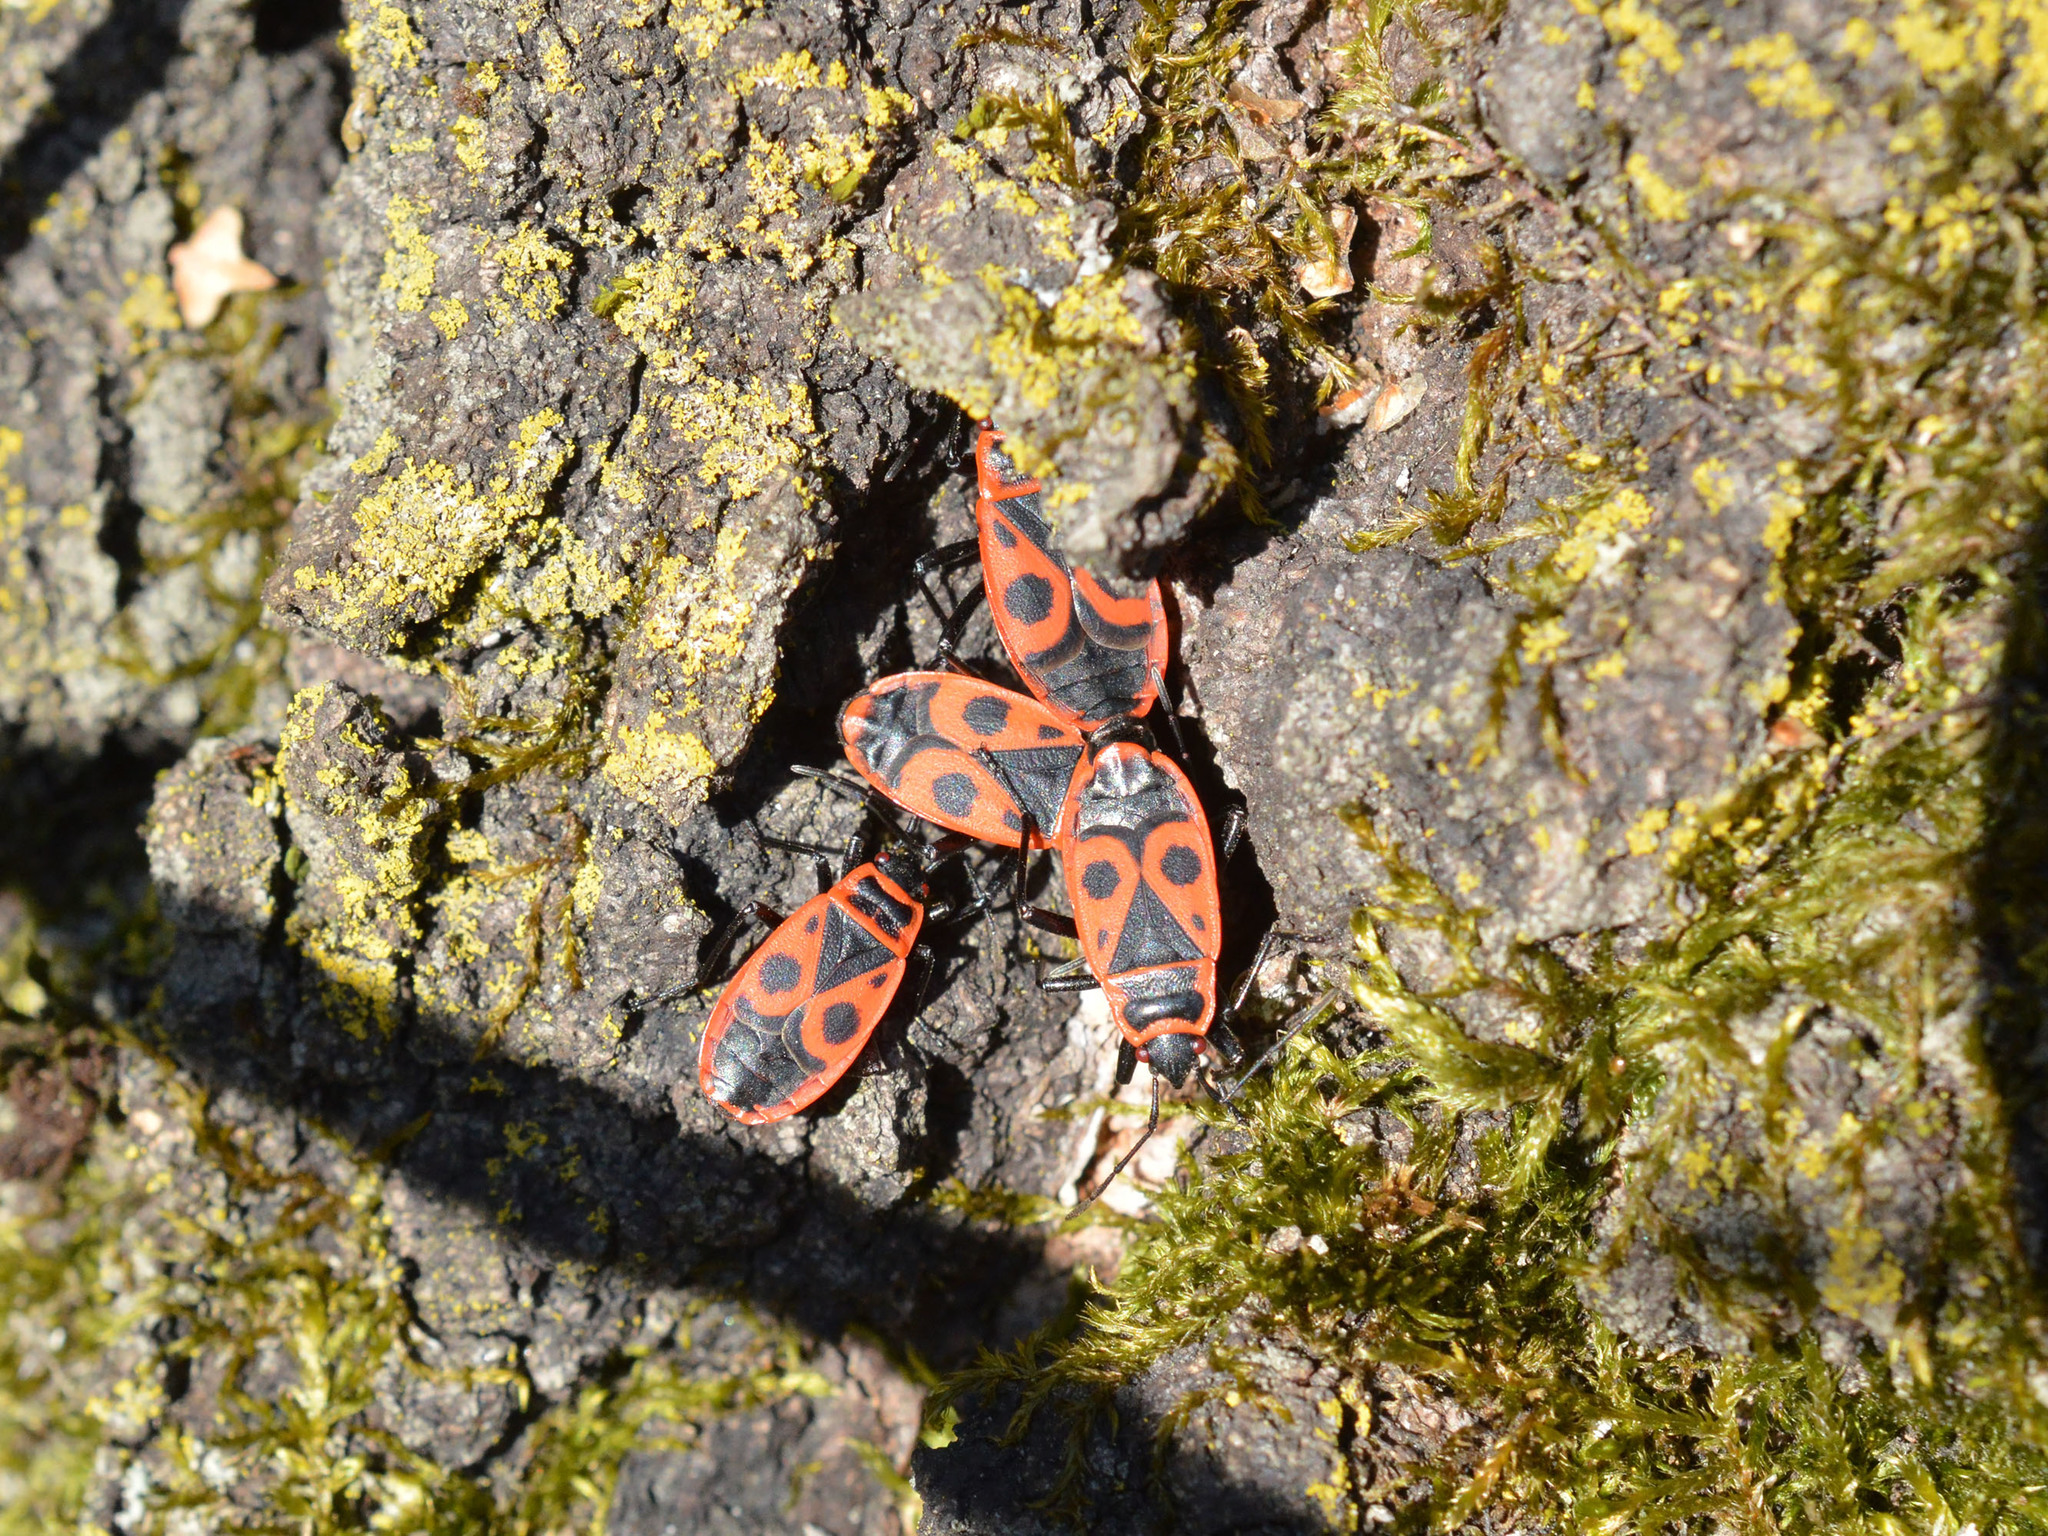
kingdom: Animalia
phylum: Arthropoda
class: Insecta
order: Hemiptera
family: Pyrrhocoridae
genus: Pyrrhocoris
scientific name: Pyrrhocoris apterus
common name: Firebug
